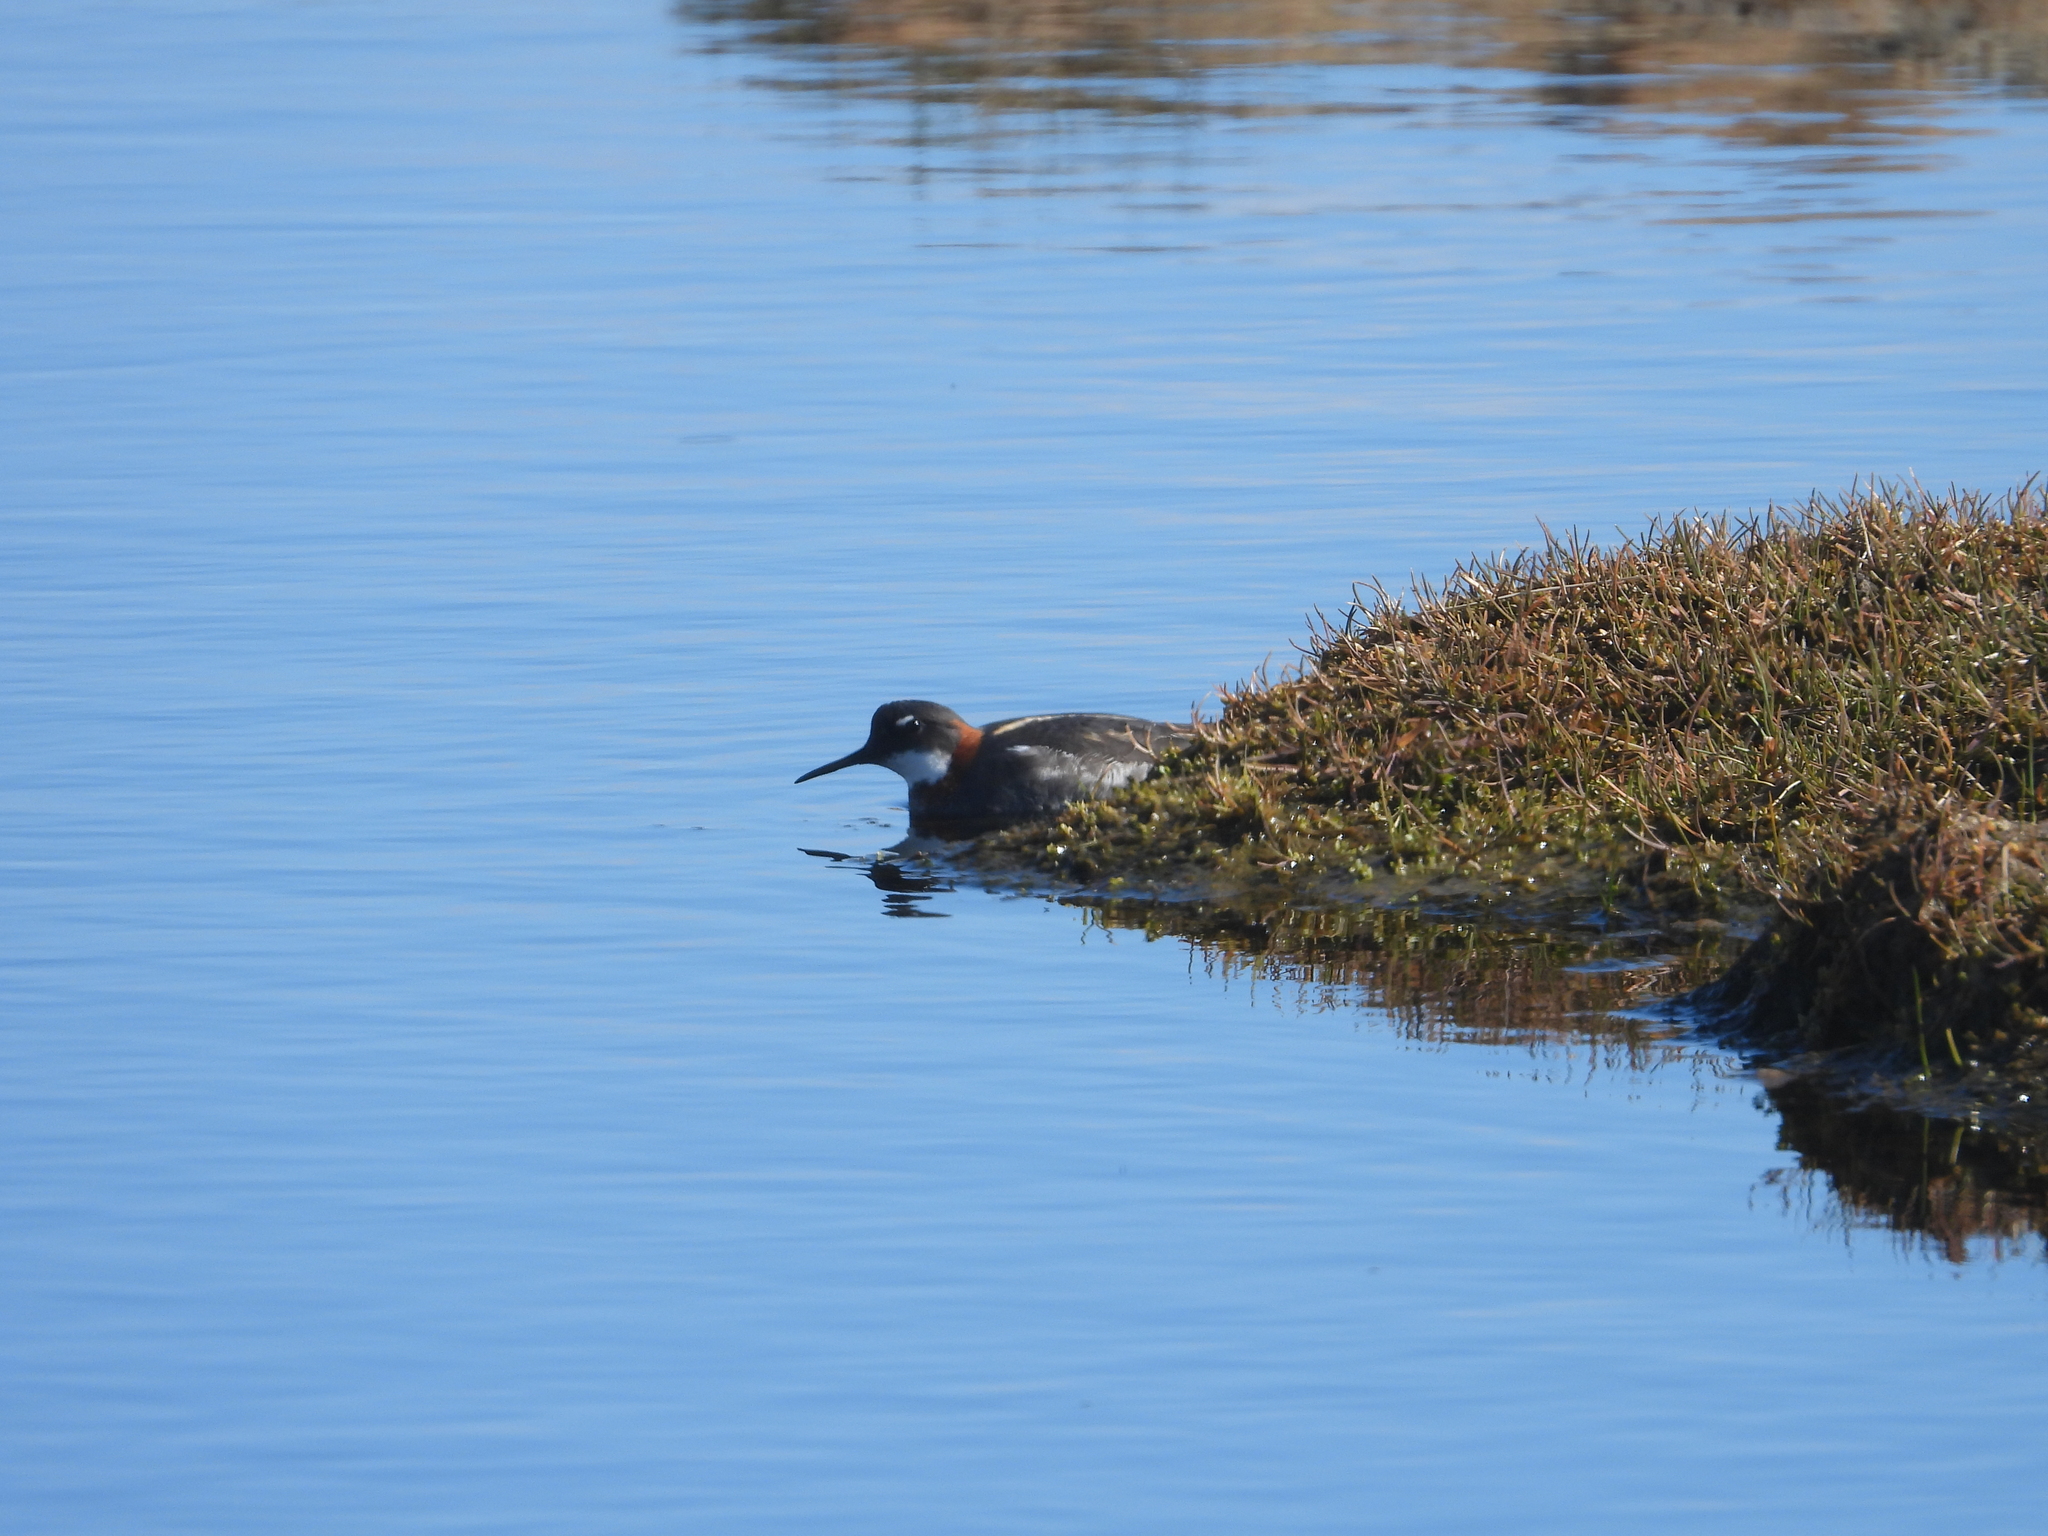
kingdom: Animalia
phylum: Chordata
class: Aves
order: Charadriiformes
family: Scolopacidae
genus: Phalaropus
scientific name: Phalaropus lobatus
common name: Red-necked phalarope
